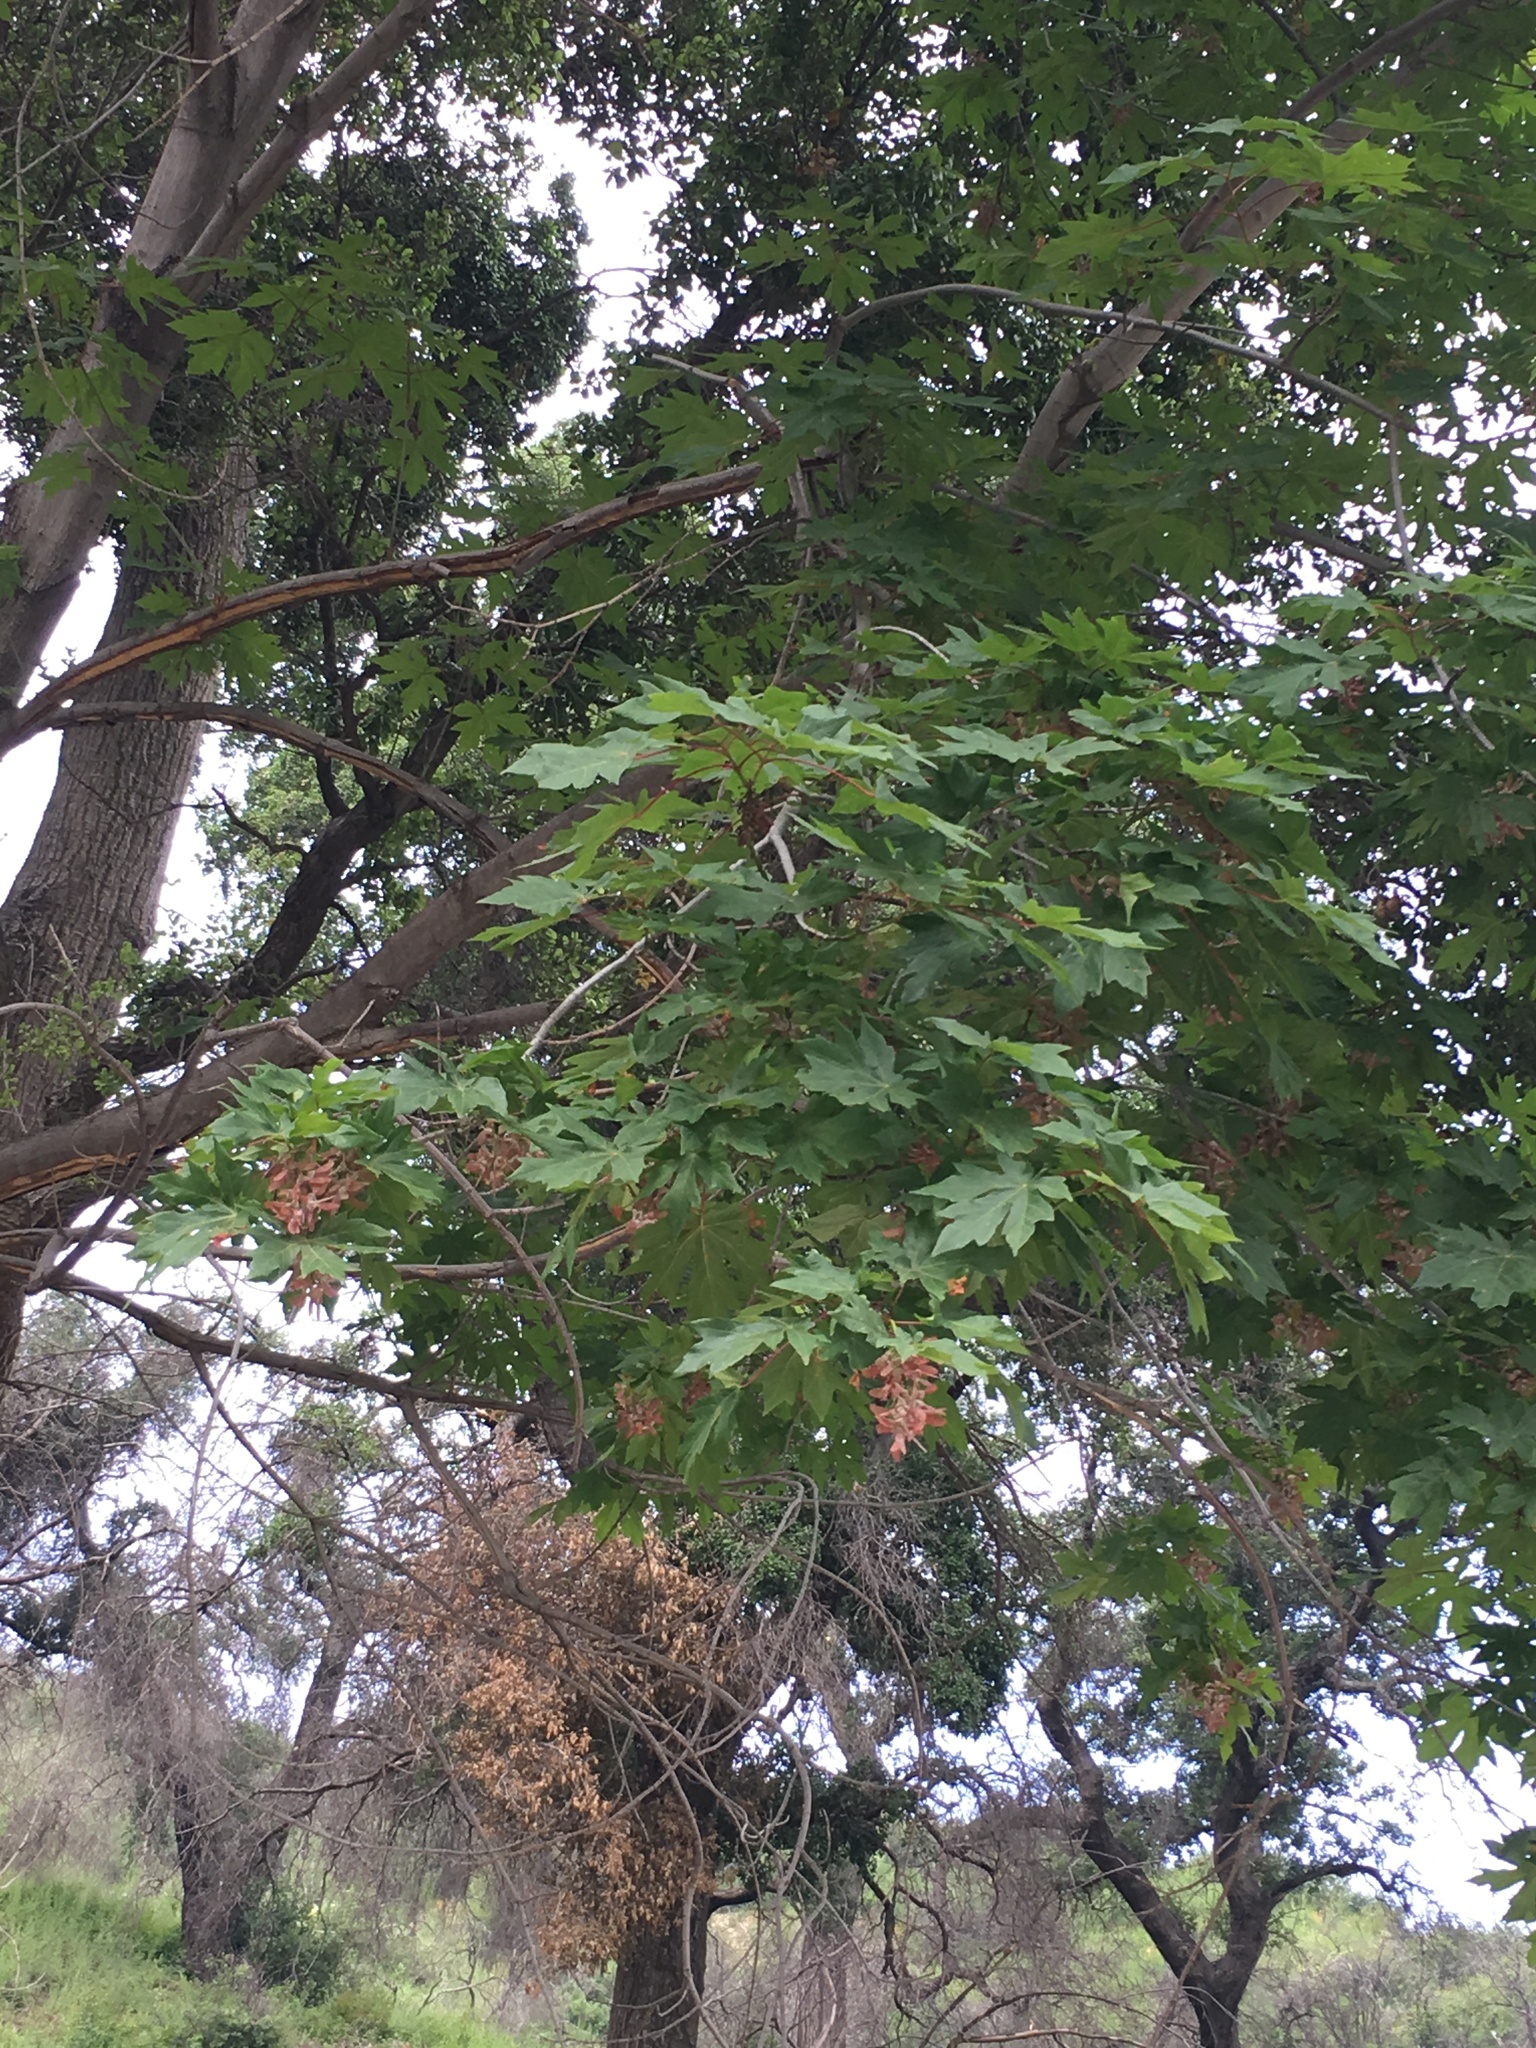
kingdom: Plantae
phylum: Tracheophyta
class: Magnoliopsida
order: Sapindales
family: Sapindaceae
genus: Acer
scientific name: Acer macrophyllum
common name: Oregon maple
